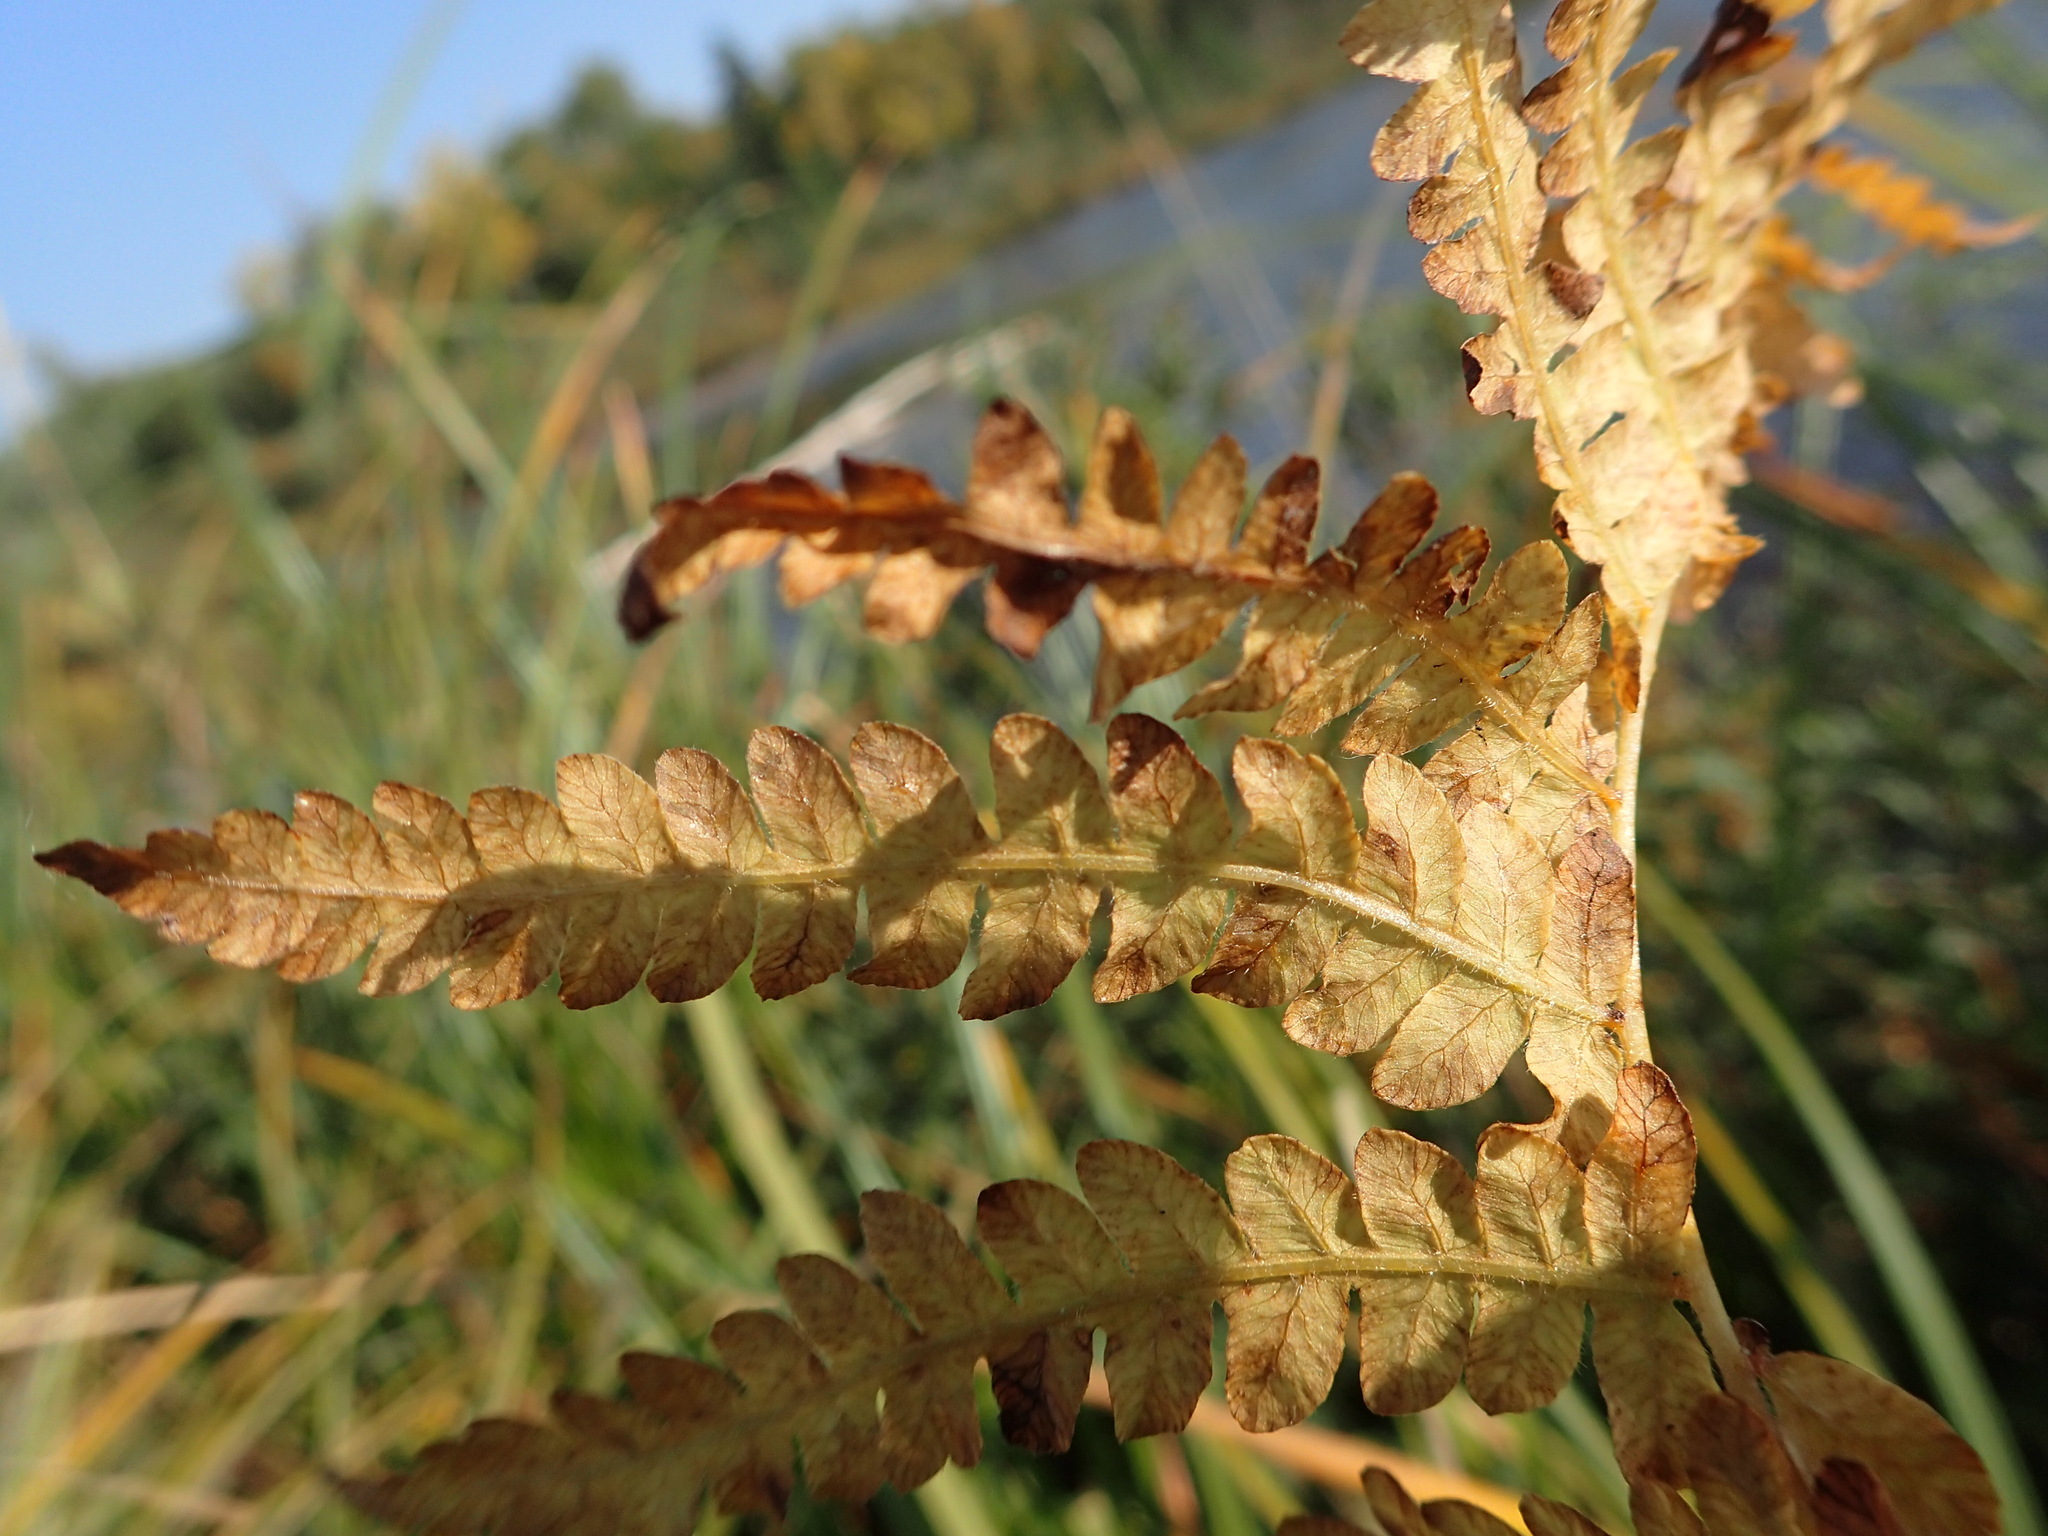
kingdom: Plantae
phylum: Tracheophyta
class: Polypodiopsida
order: Polypodiales
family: Thelypteridaceae
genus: Thelypteris
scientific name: Thelypteris palustris
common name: Marsh fern
